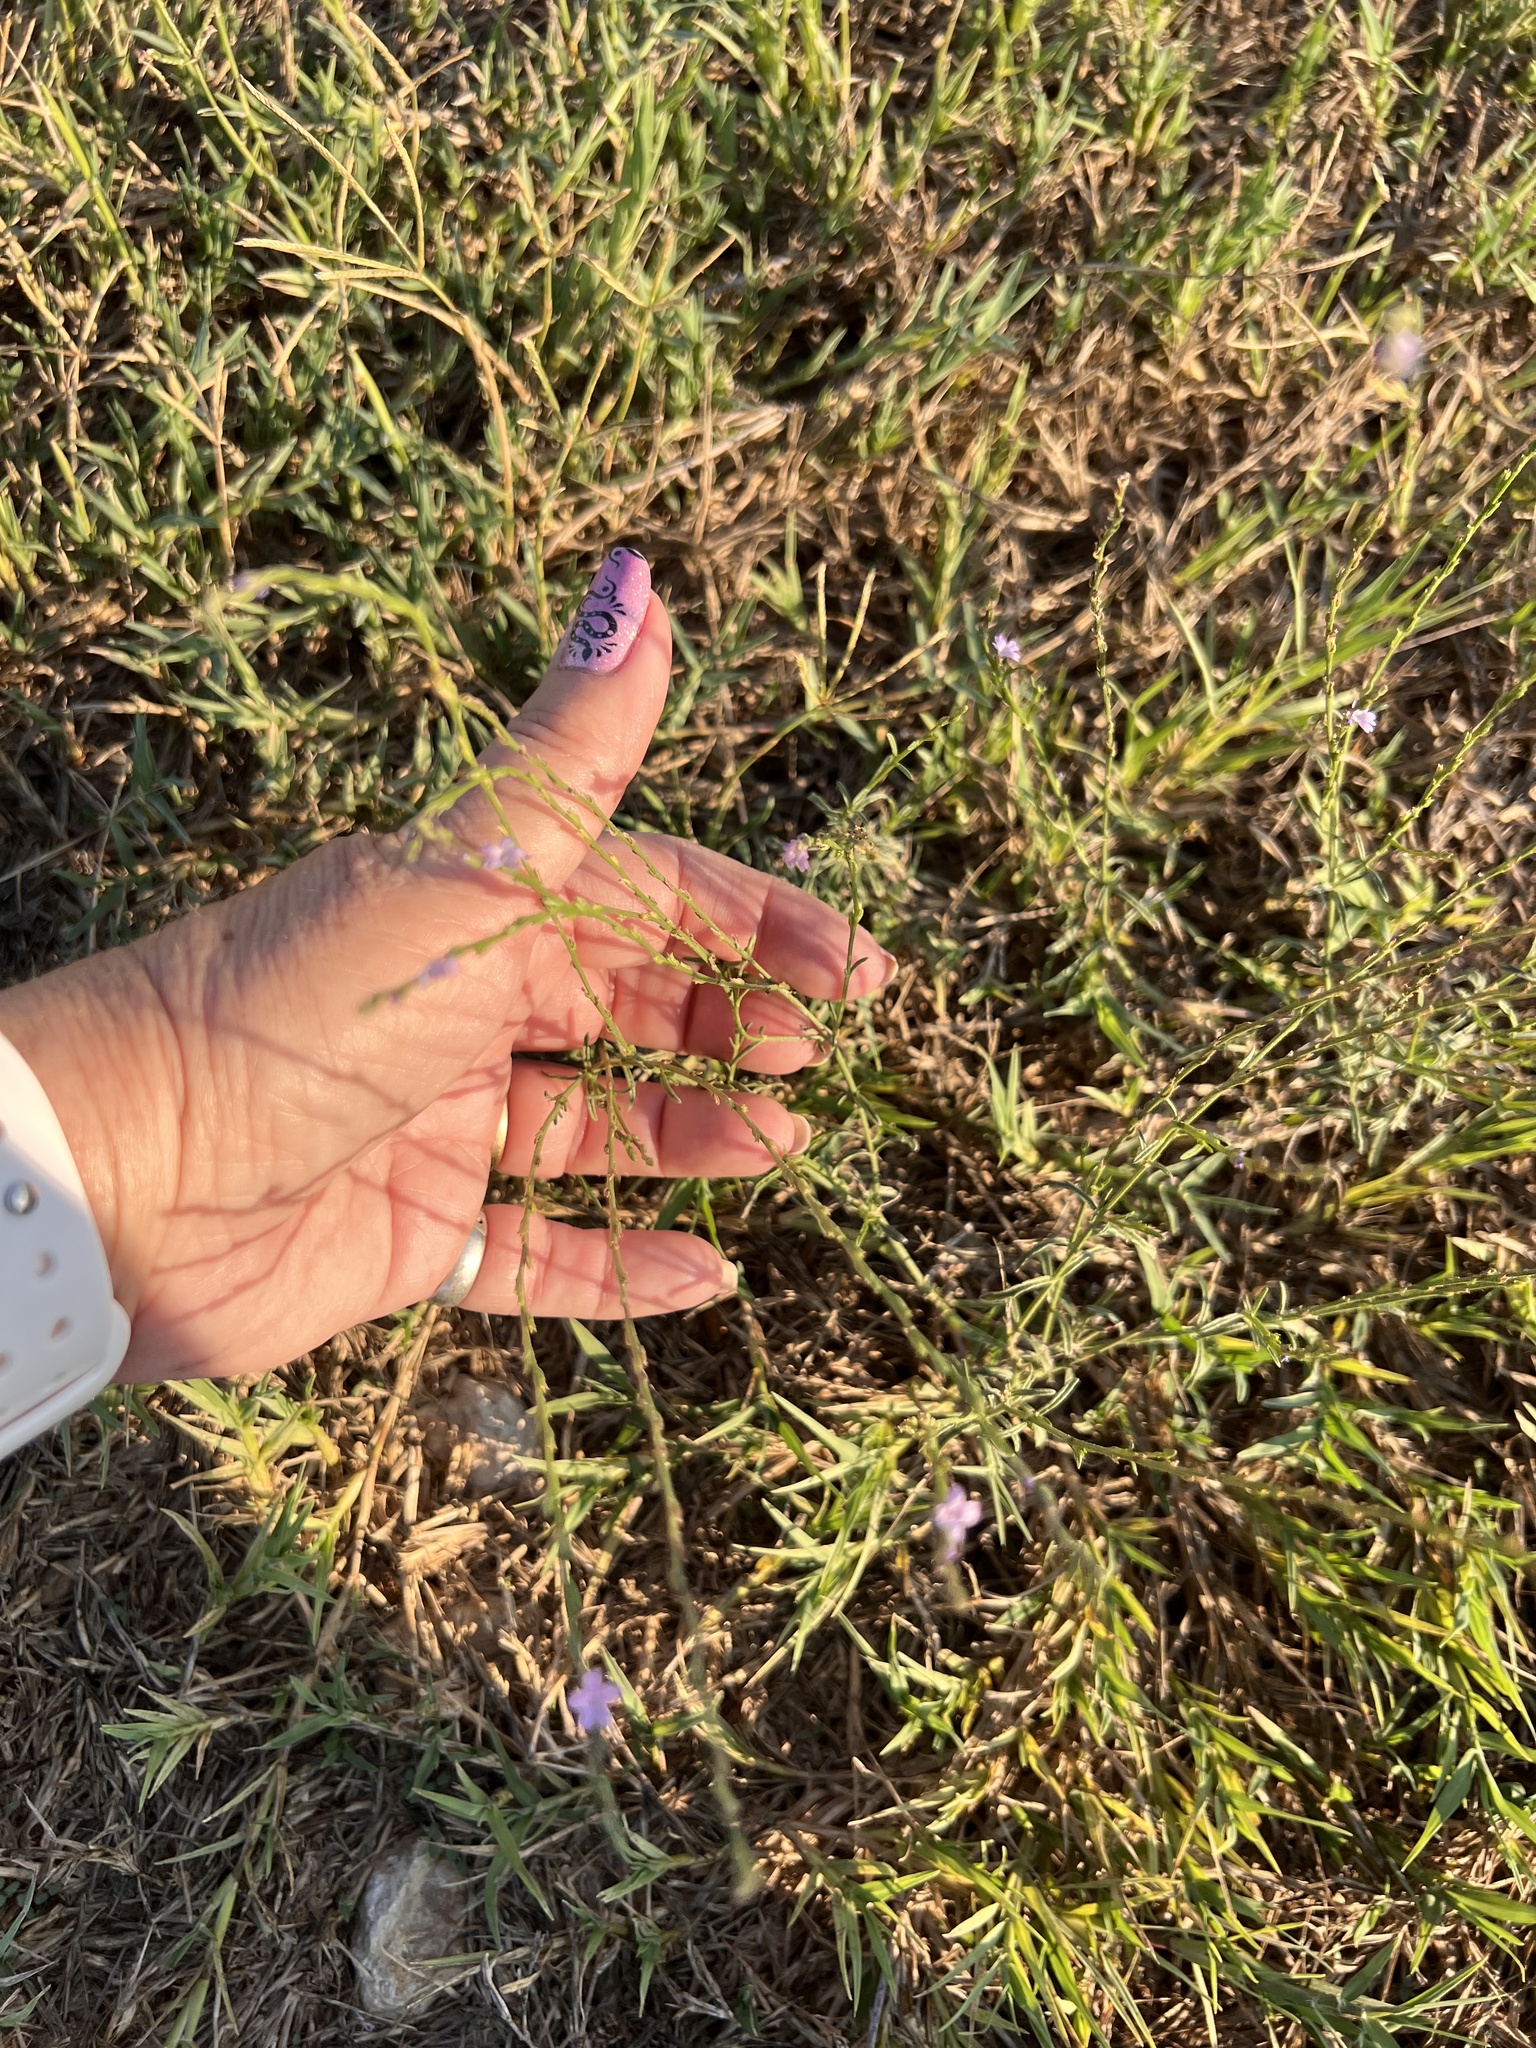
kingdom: Plantae
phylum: Tracheophyta
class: Magnoliopsida
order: Lamiales
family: Verbenaceae
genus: Verbena
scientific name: Verbena halei
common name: Texas vervain
